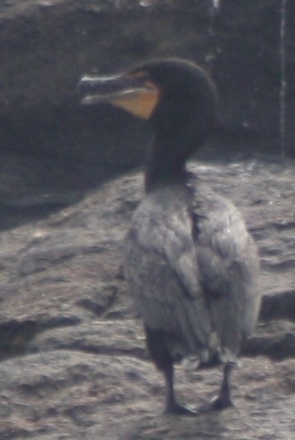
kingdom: Animalia
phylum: Chordata
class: Aves
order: Suliformes
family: Phalacrocoracidae
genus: Phalacrocorax
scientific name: Phalacrocorax auritus
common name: Double-crested cormorant
